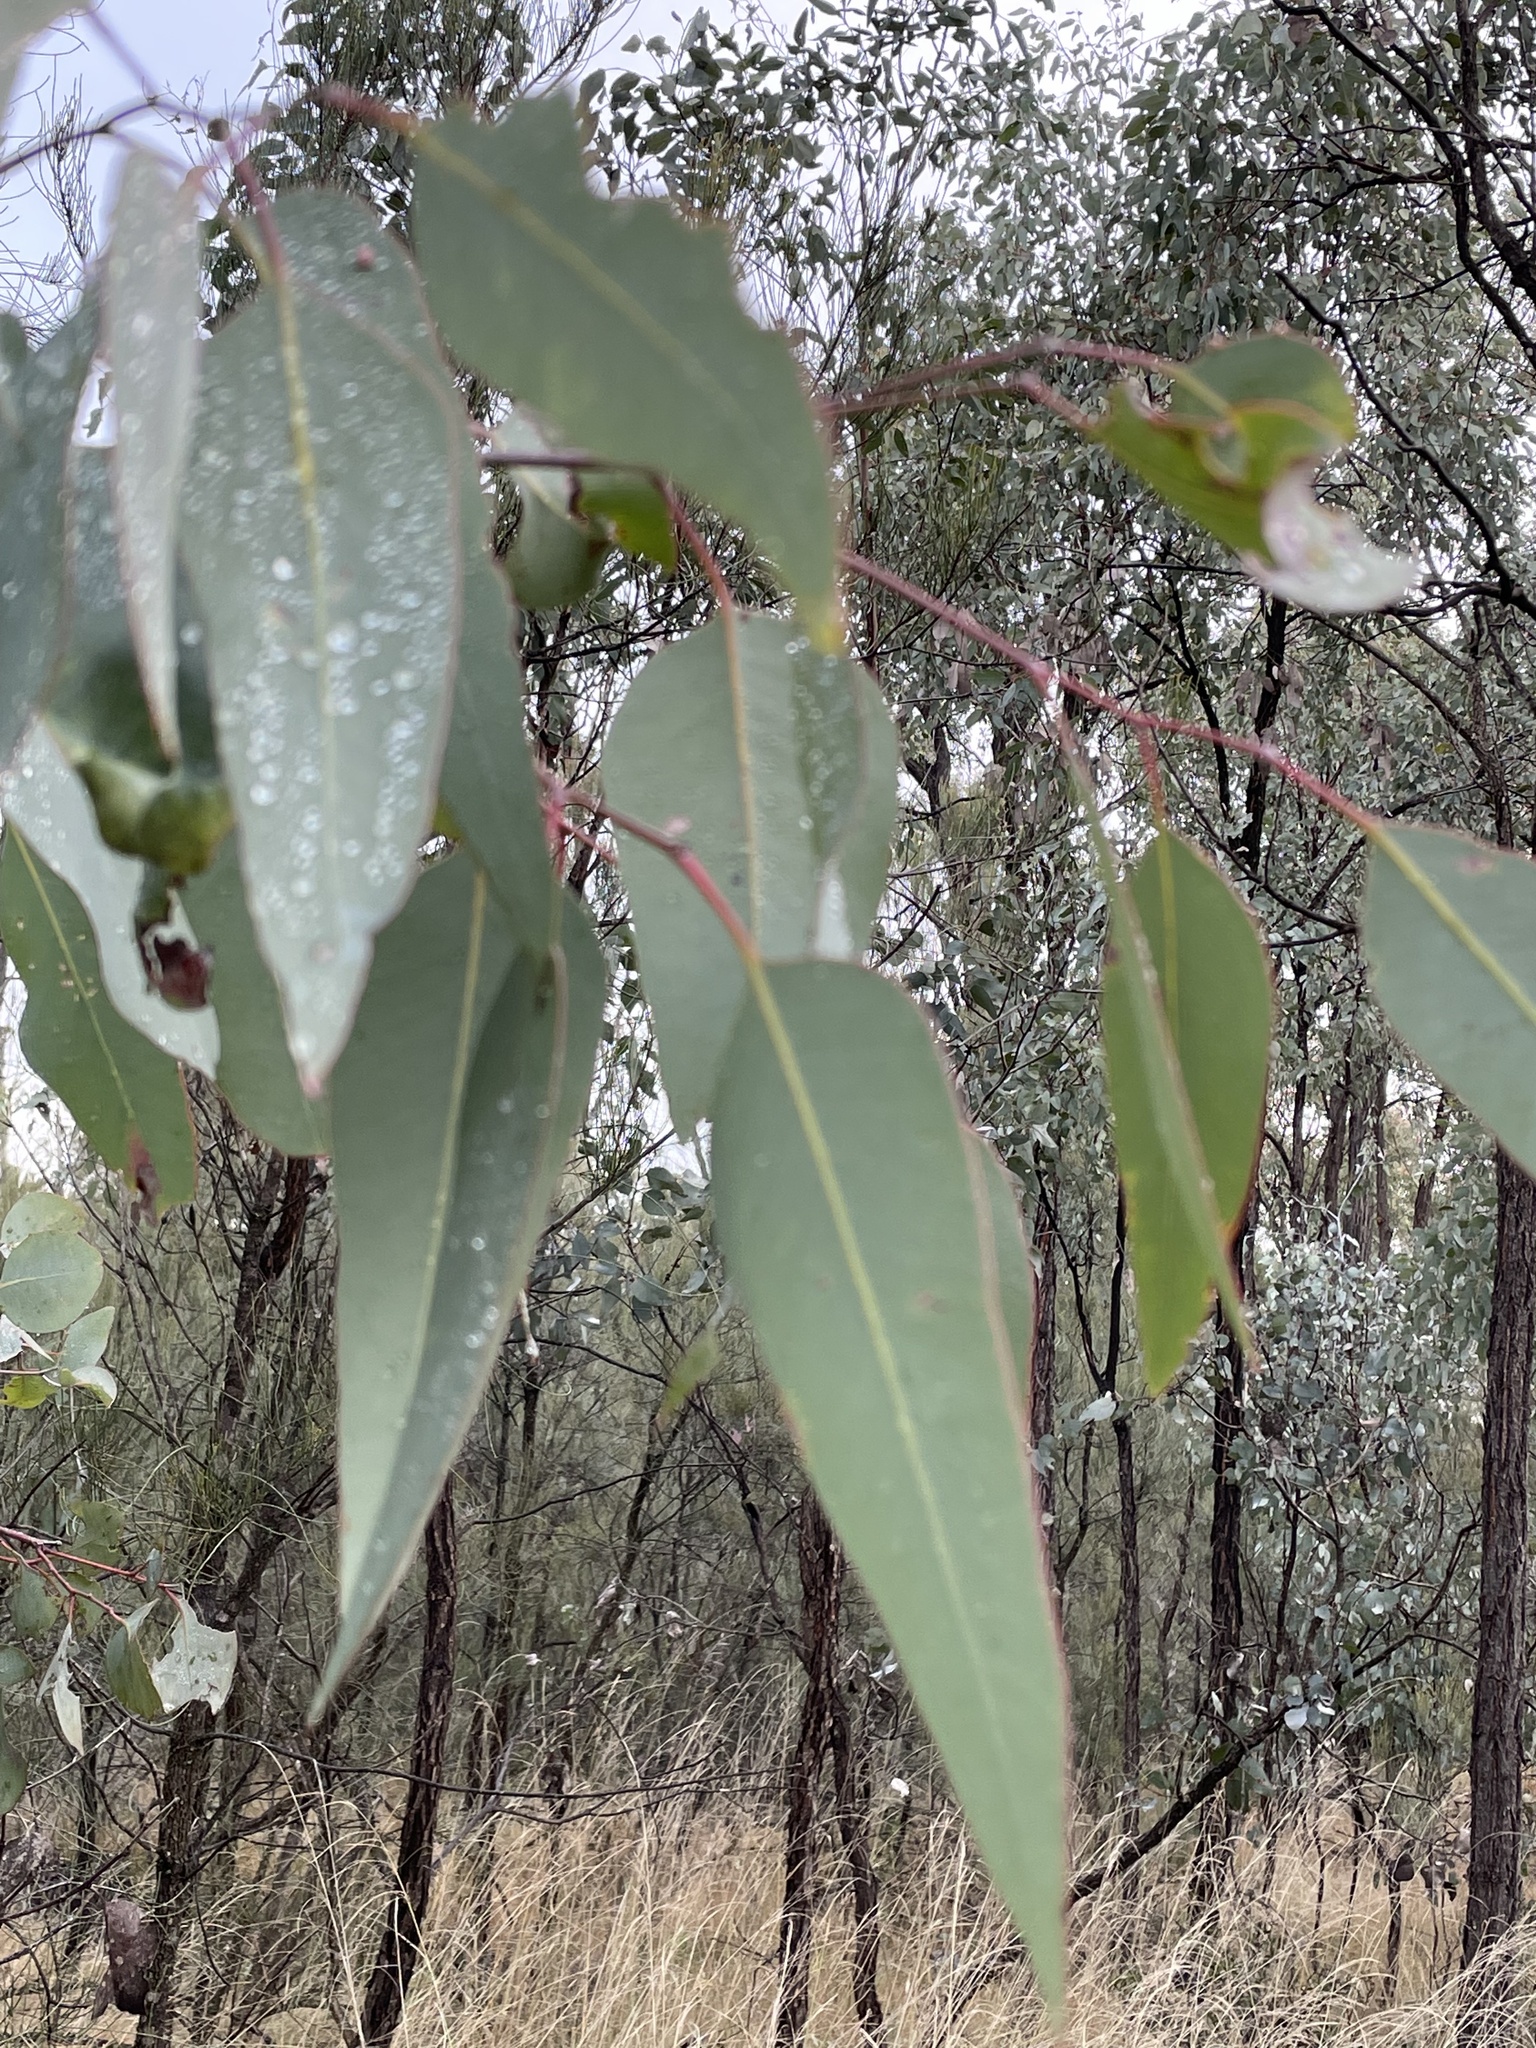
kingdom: Plantae
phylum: Tracheophyta
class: Magnoliopsida
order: Myrtales
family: Myrtaceae
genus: Eucalyptus
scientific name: Eucalyptus fibrosa
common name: Red ironbark
